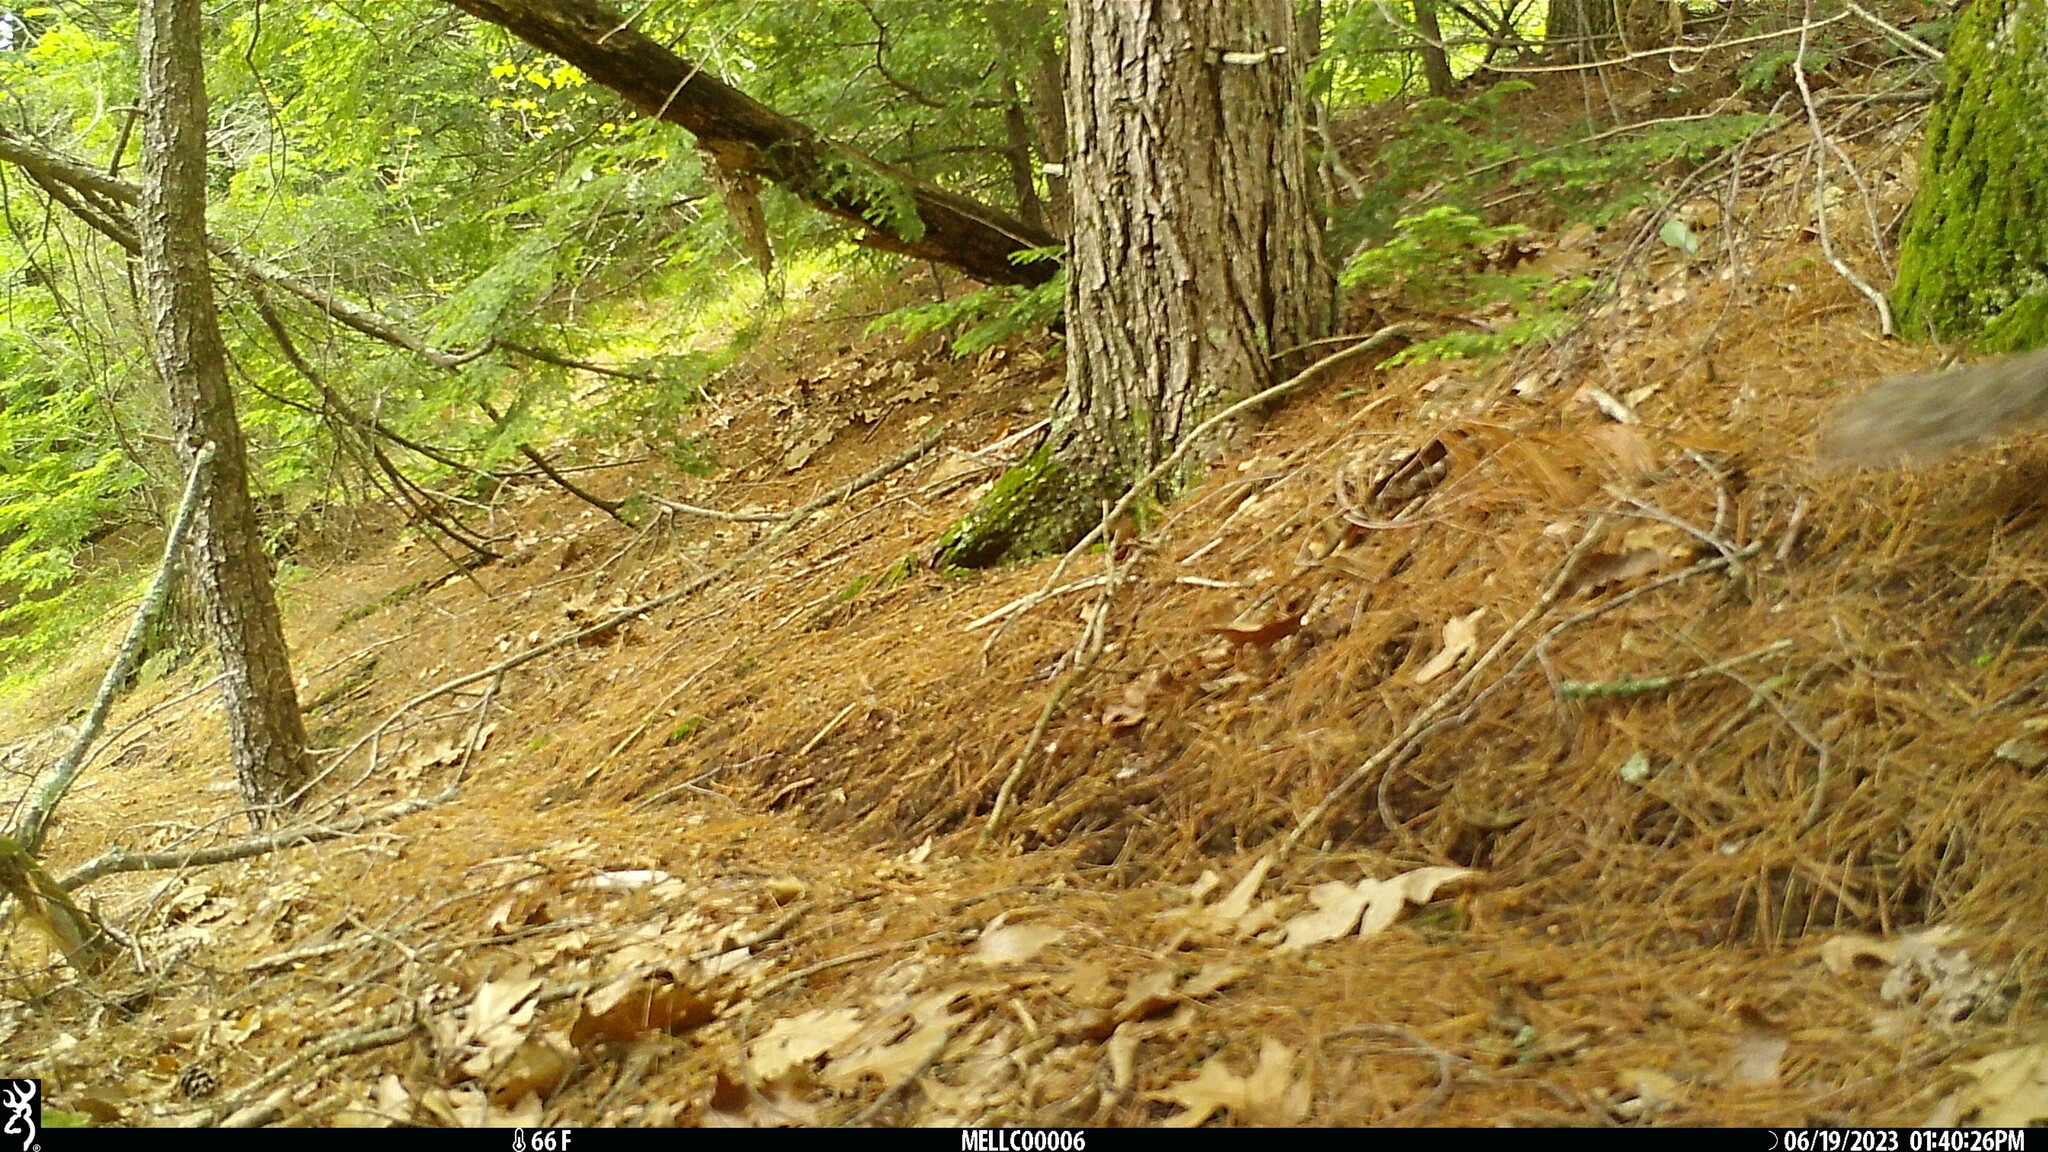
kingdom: Animalia
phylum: Chordata
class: Mammalia
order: Rodentia
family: Sciuridae
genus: Sciurus
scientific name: Sciurus carolinensis
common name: Eastern gray squirrel
